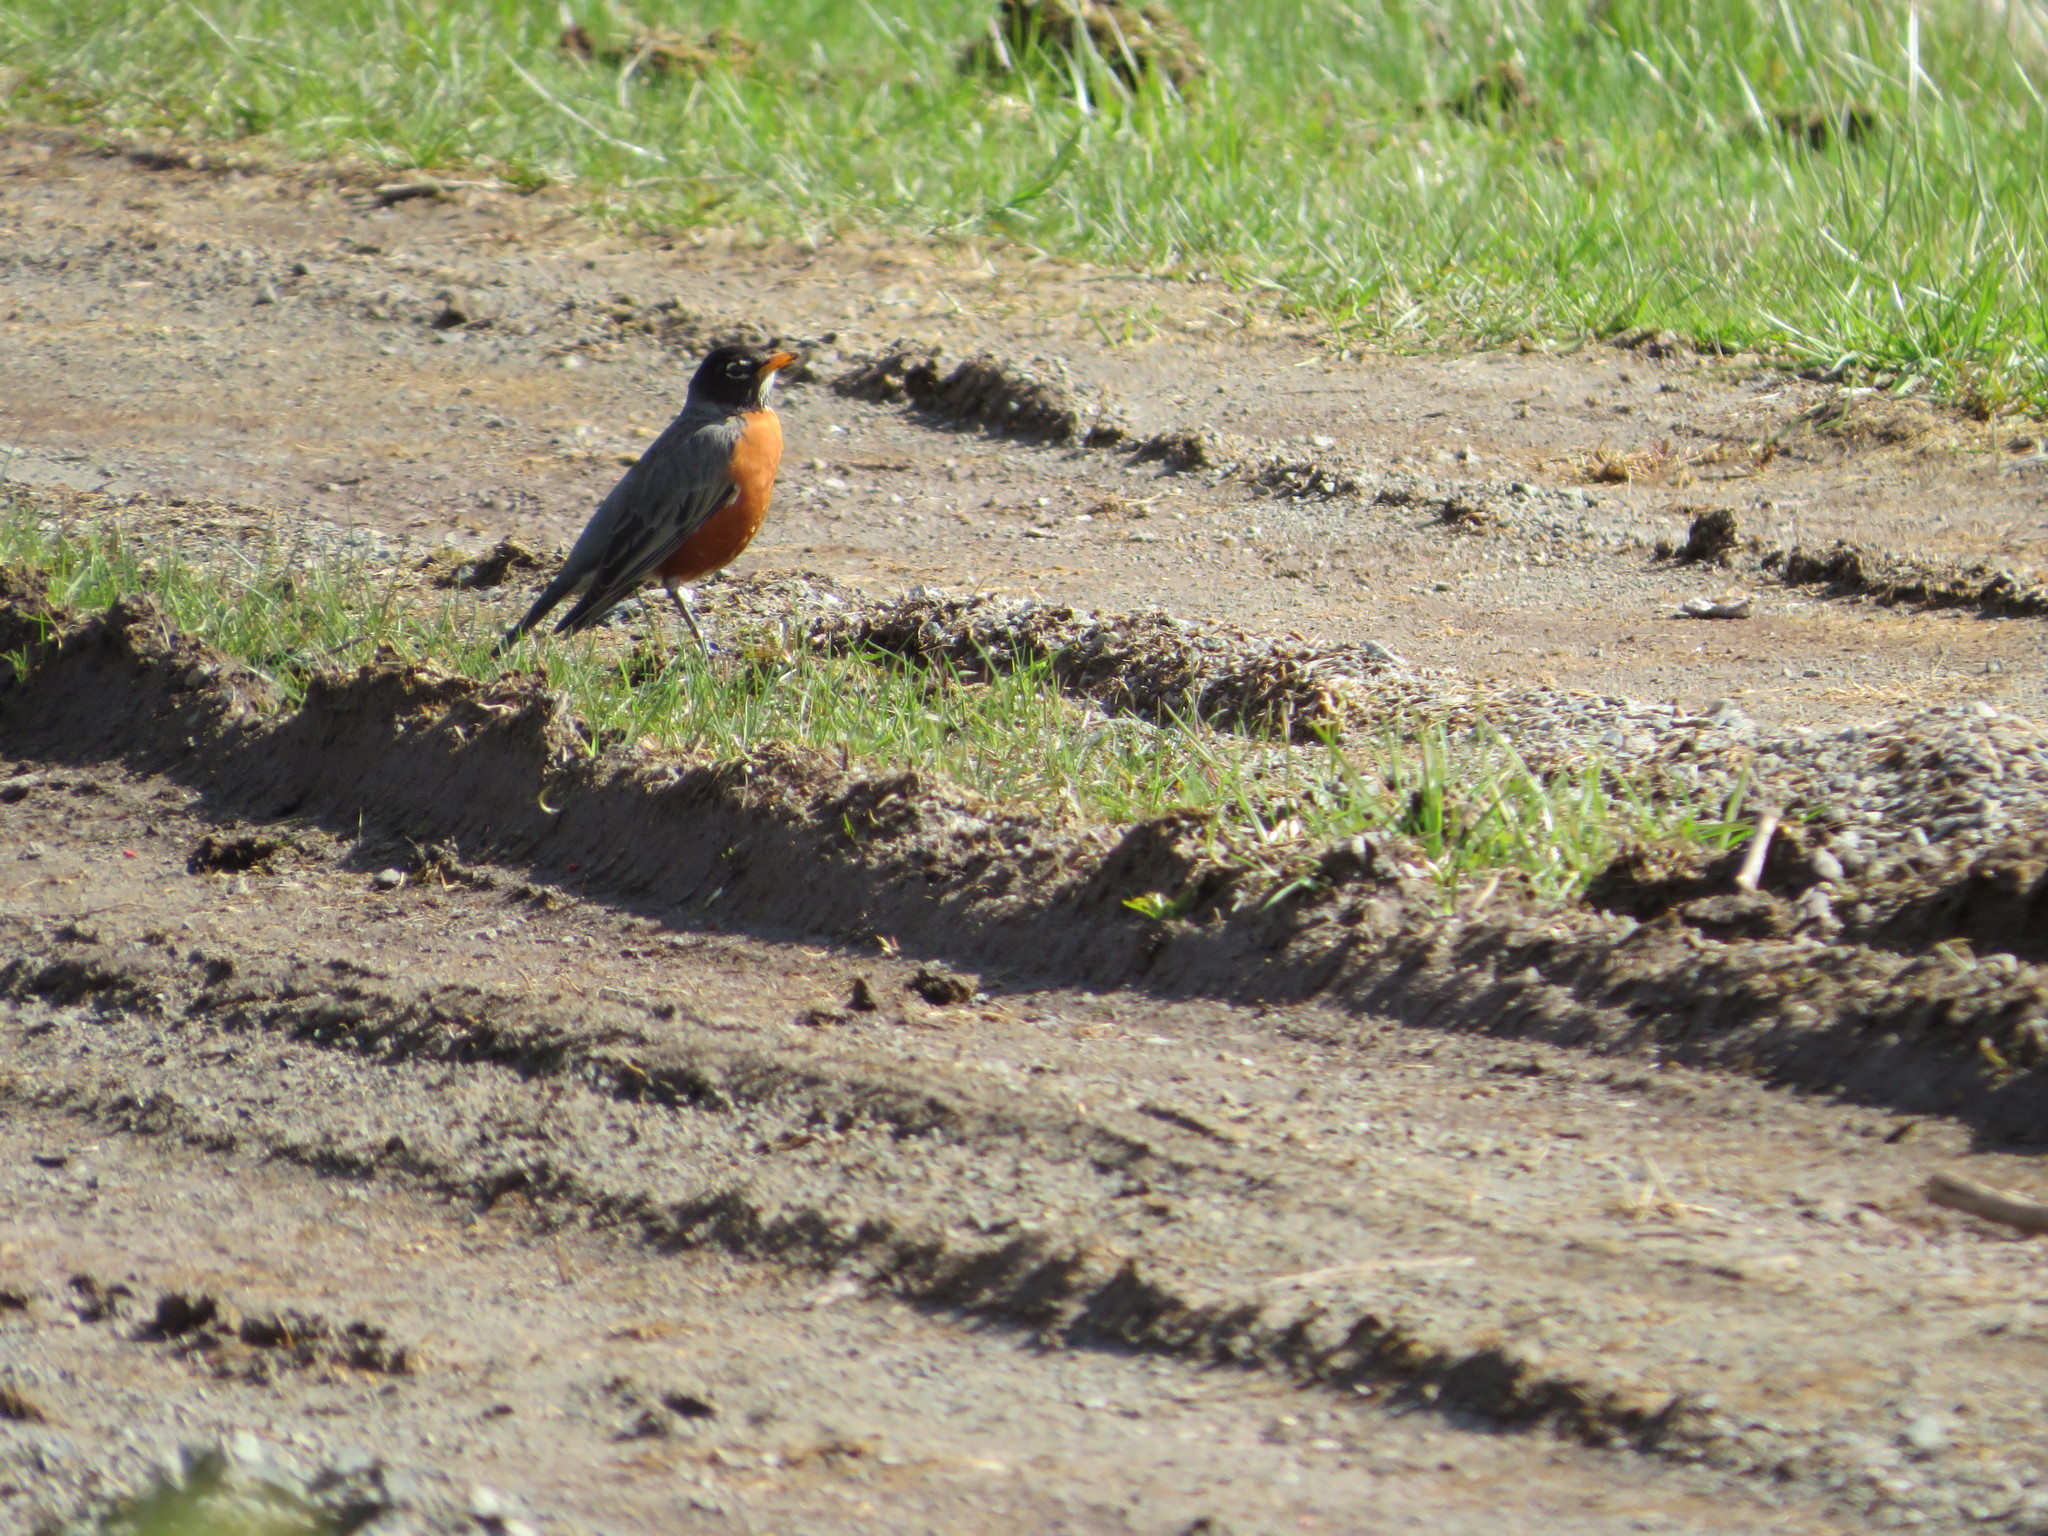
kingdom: Animalia
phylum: Chordata
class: Aves
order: Passeriformes
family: Turdidae
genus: Turdus
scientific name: Turdus migratorius
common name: American robin
